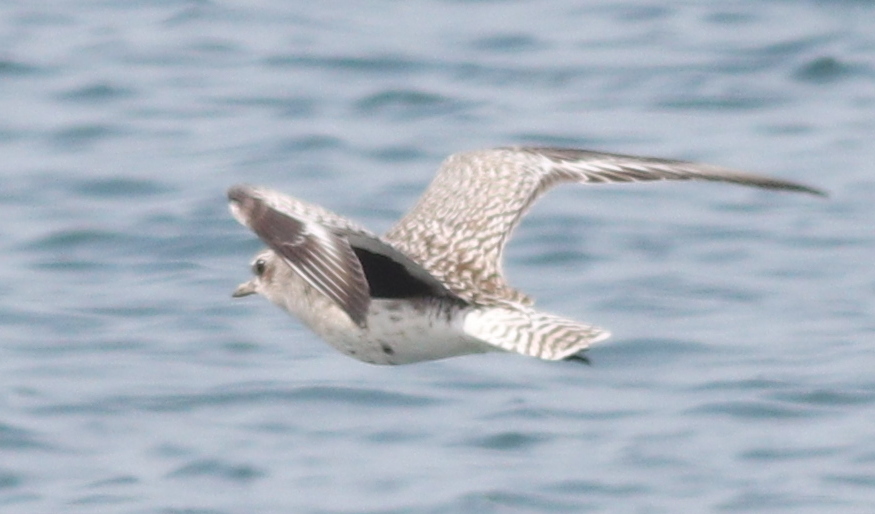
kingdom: Animalia
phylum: Chordata
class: Aves
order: Charadriiformes
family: Charadriidae
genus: Pluvialis
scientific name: Pluvialis squatarola
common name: Grey plover
